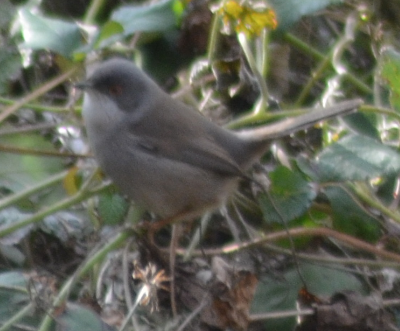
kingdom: Animalia
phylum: Chordata
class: Aves
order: Passeriformes
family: Sylviidae
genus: Curruca
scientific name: Curruca melanocephala
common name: Sardinian warbler
